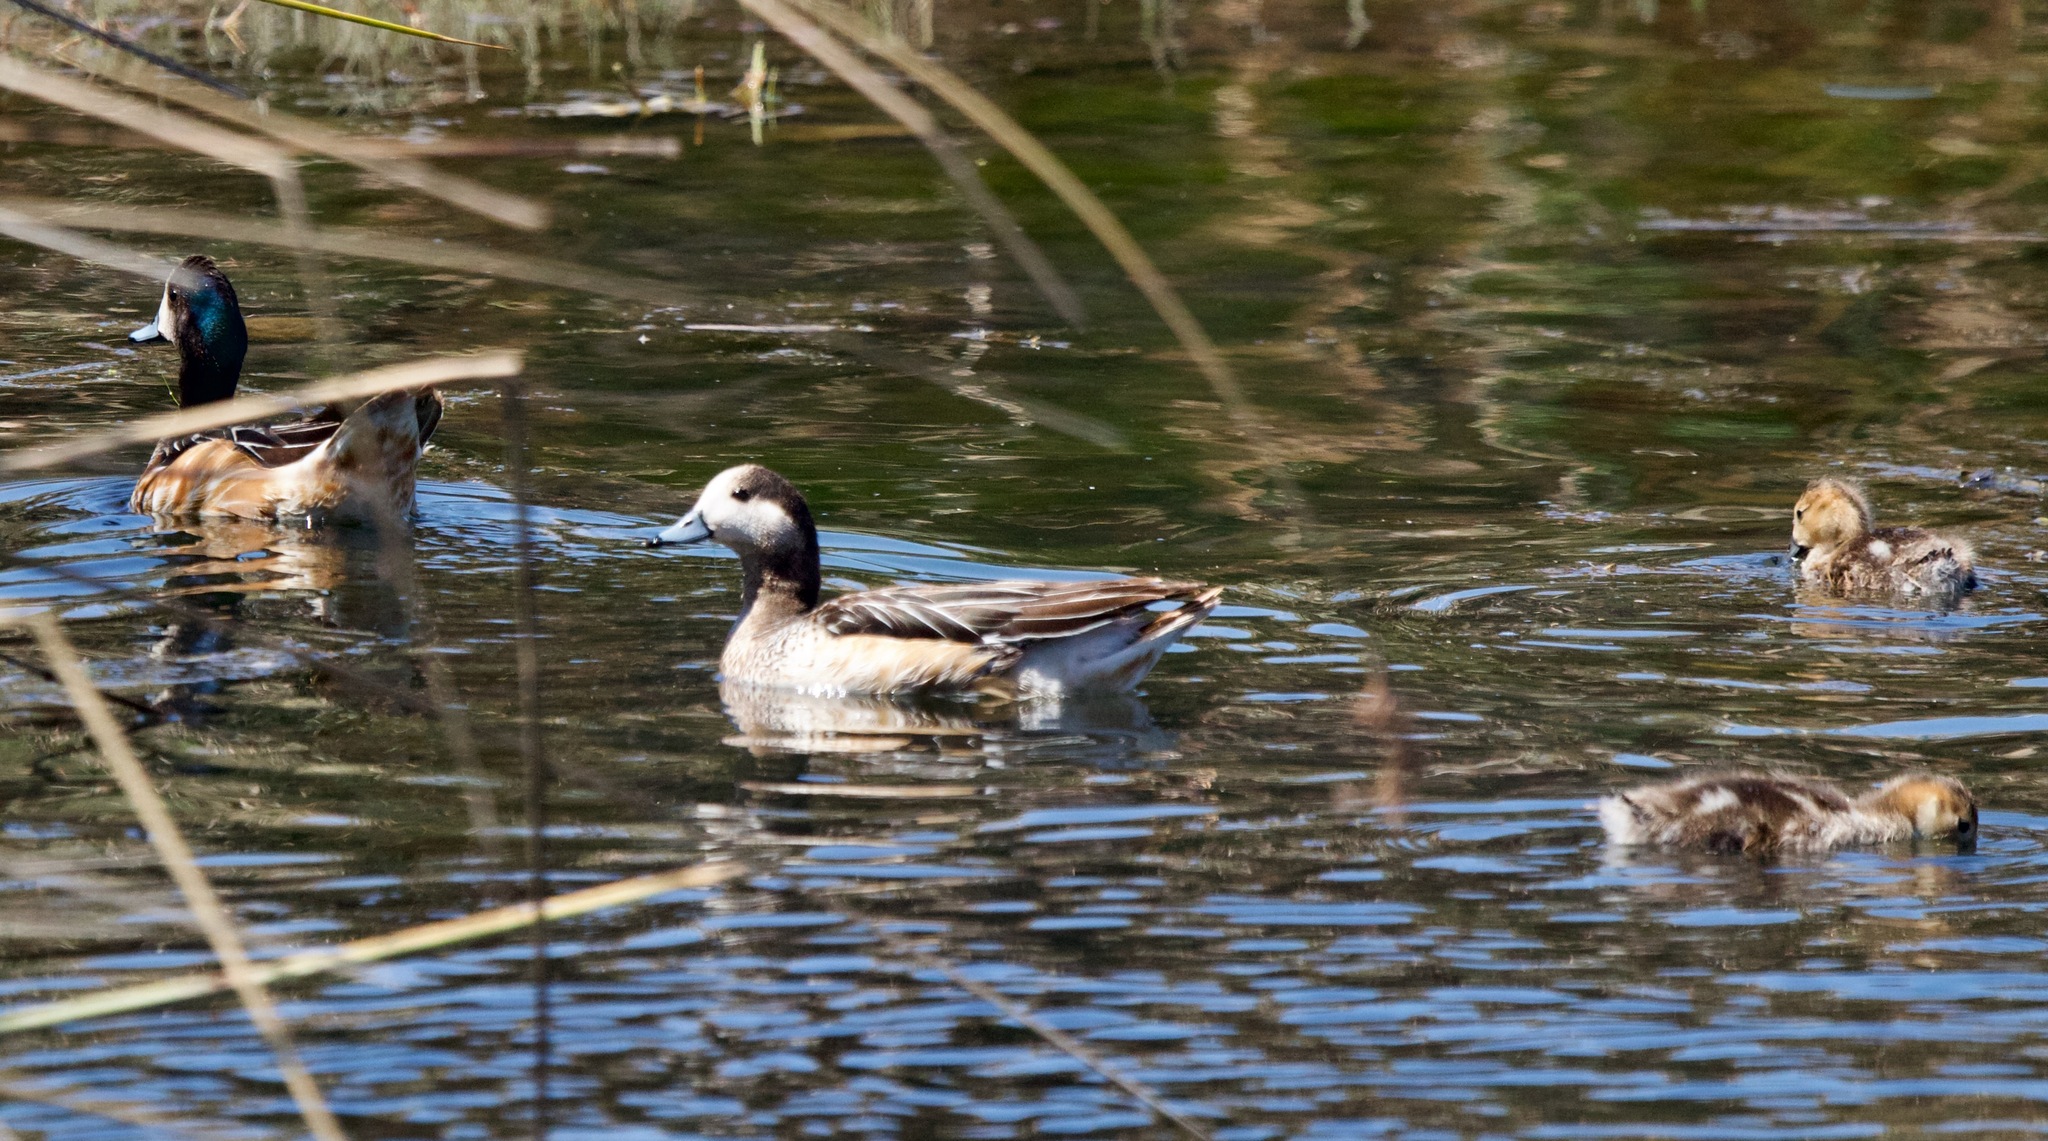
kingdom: Animalia
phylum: Chordata
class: Aves
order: Anseriformes
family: Anatidae
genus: Mareca
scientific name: Mareca sibilatrix
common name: Chiloe wigeon
